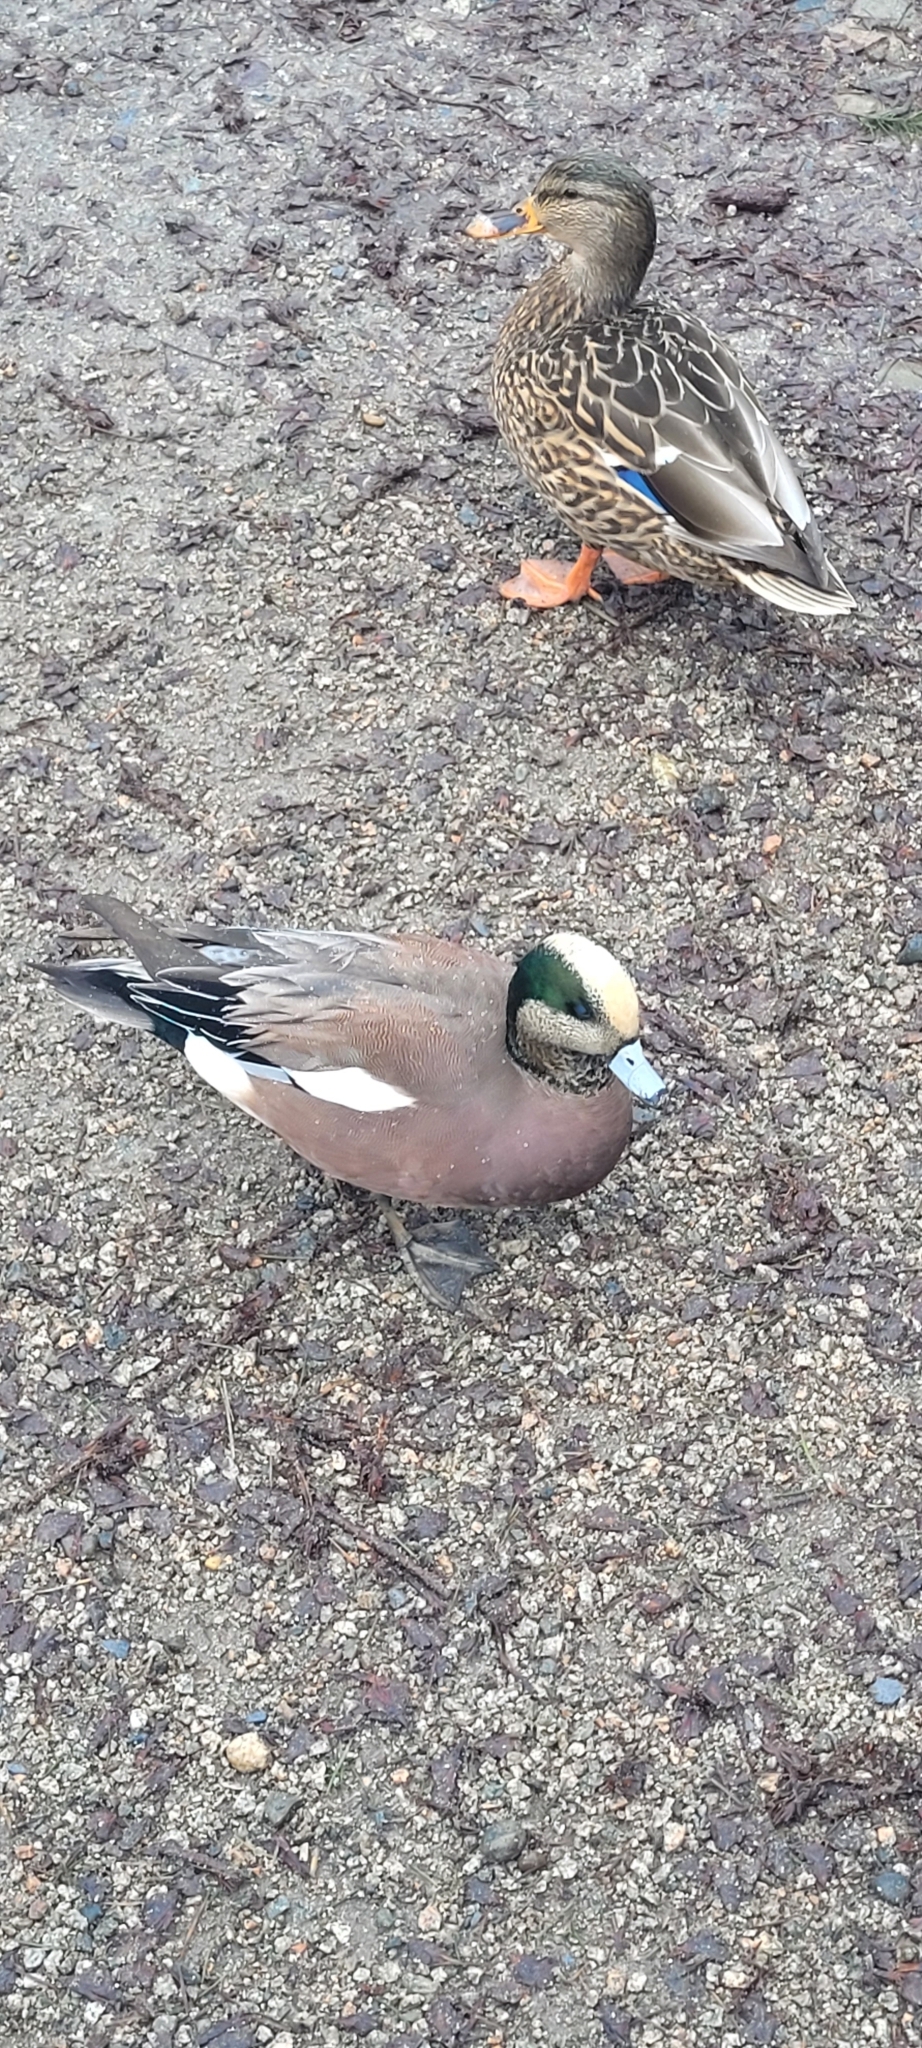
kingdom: Animalia
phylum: Chordata
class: Aves
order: Anseriformes
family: Anatidae
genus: Mareca
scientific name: Mareca americana
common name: American wigeon
